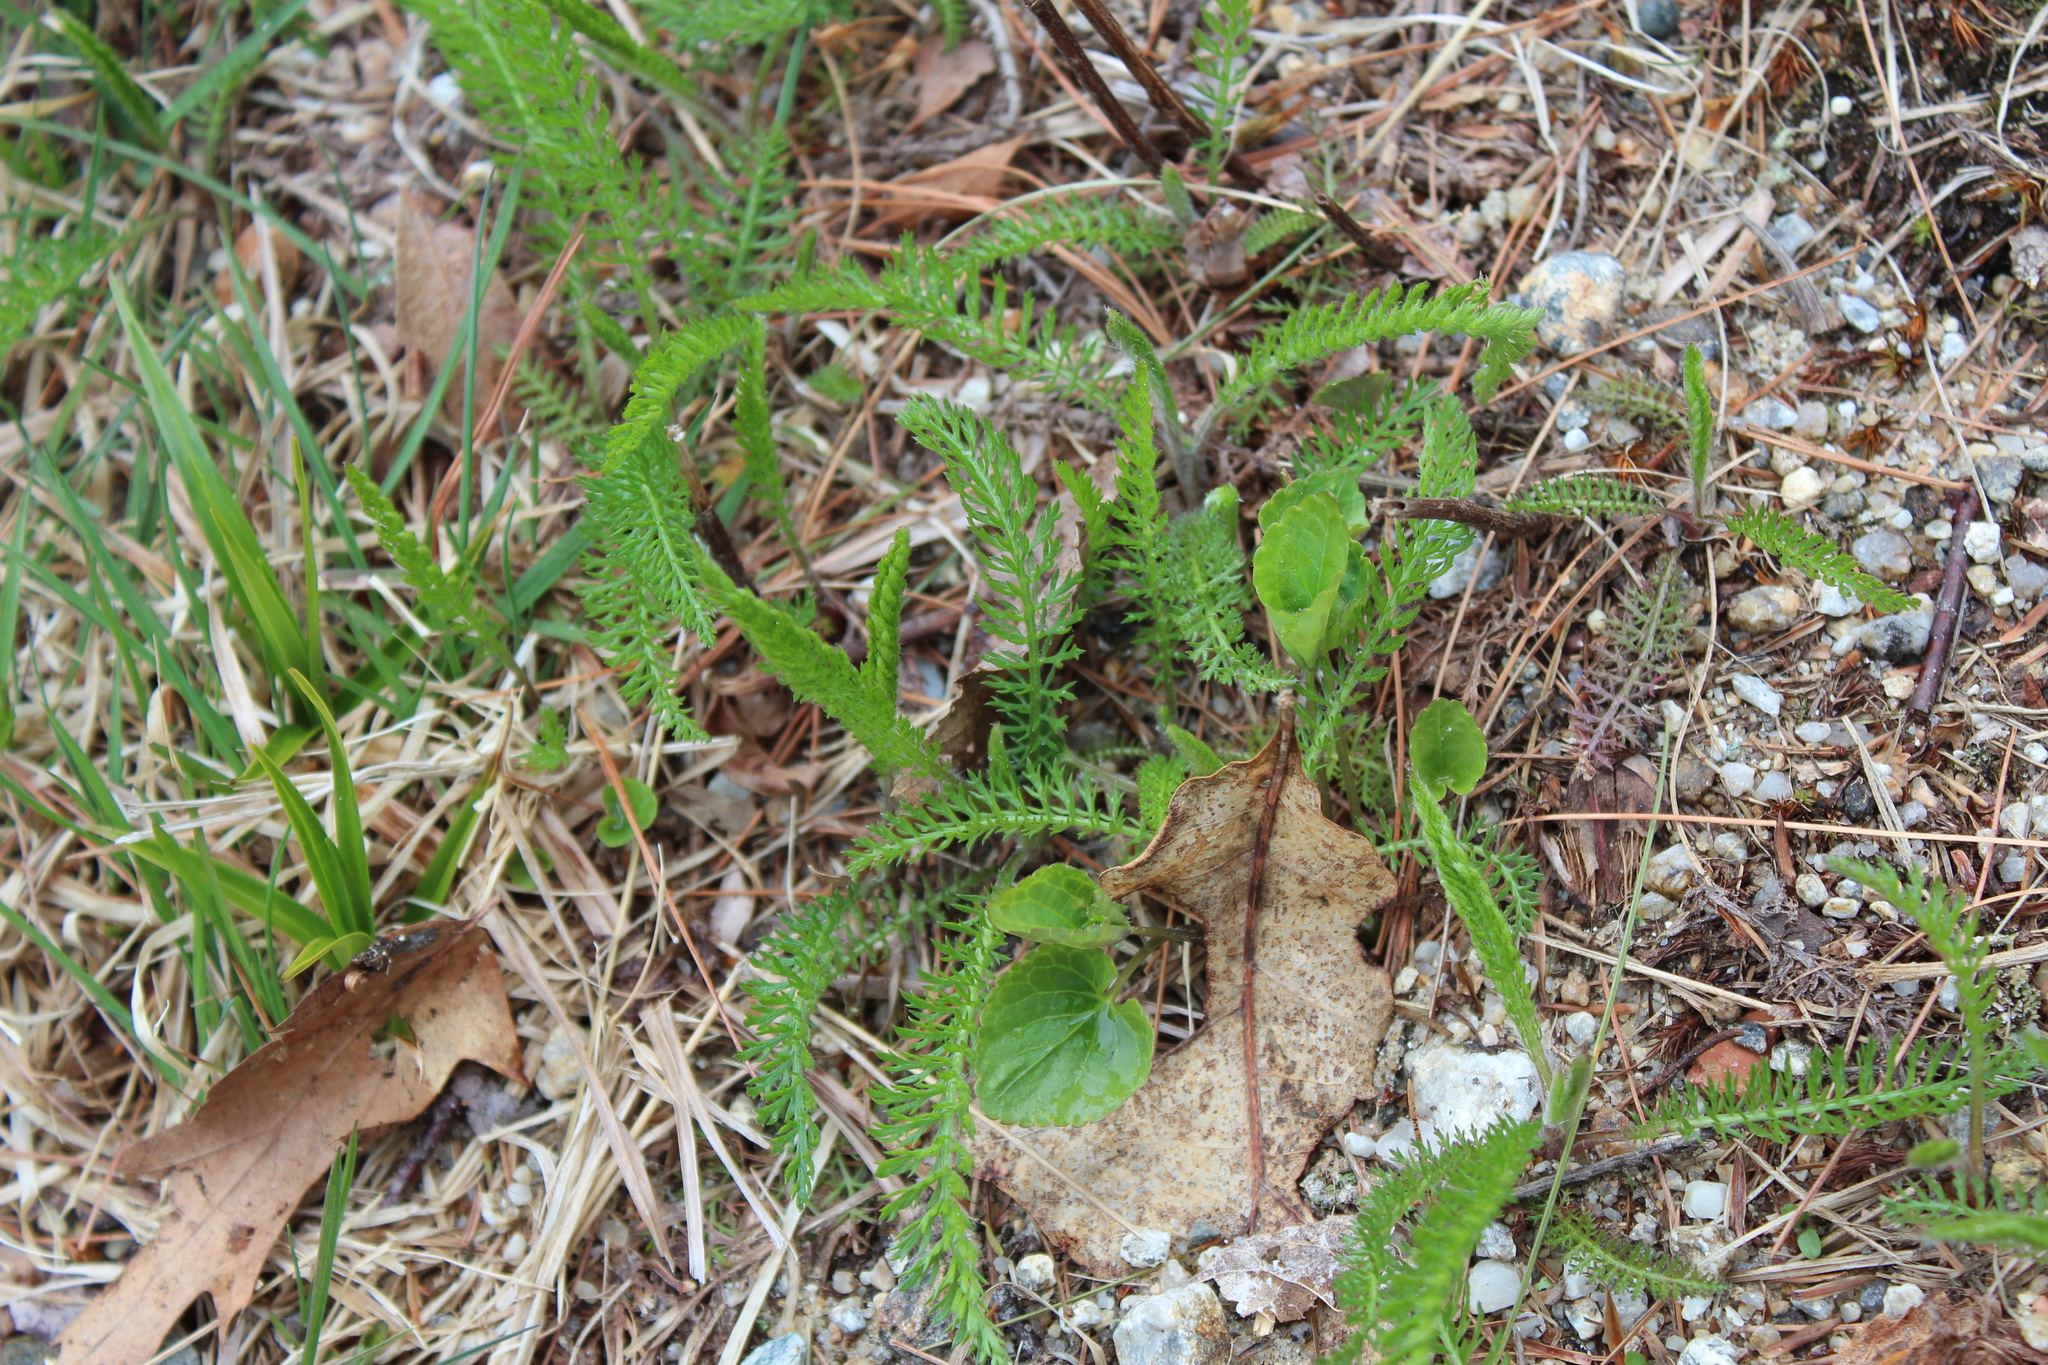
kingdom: Plantae
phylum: Tracheophyta
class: Magnoliopsida
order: Asterales
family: Asteraceae
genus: Achillea
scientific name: Achillea millefolium
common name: Yarrow
